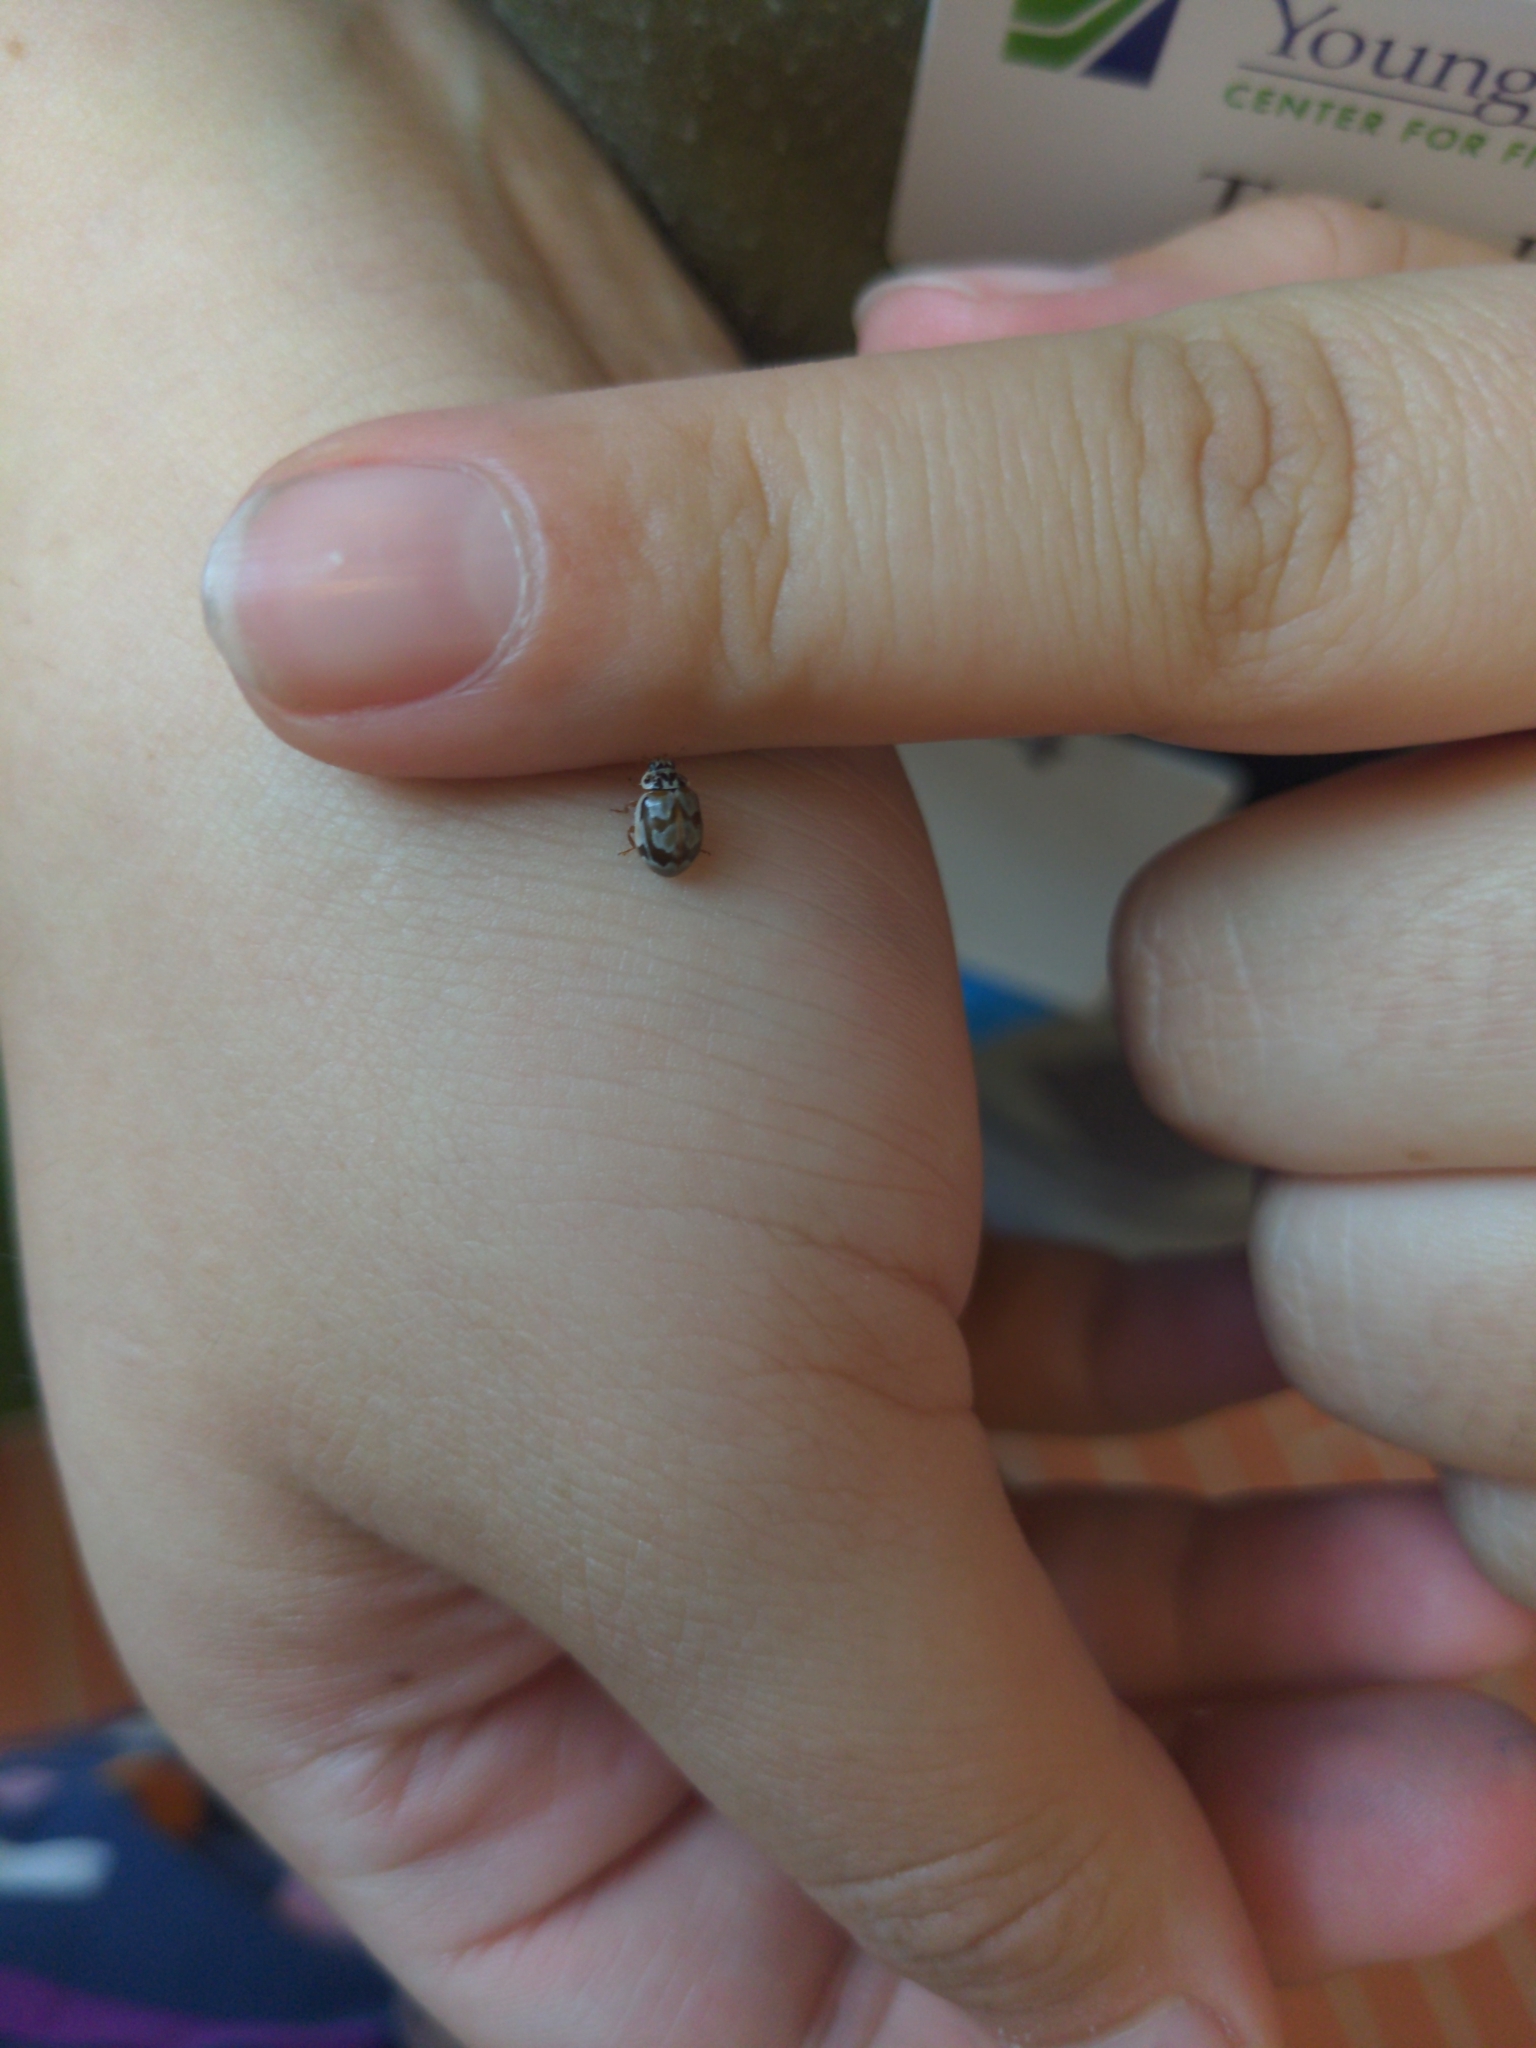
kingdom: Animalia
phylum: Arthropoda
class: Insecta
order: Coleoptera
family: Coccinellidae
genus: Mulsantina
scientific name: Mulsantina picta
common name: Painted ladybird
